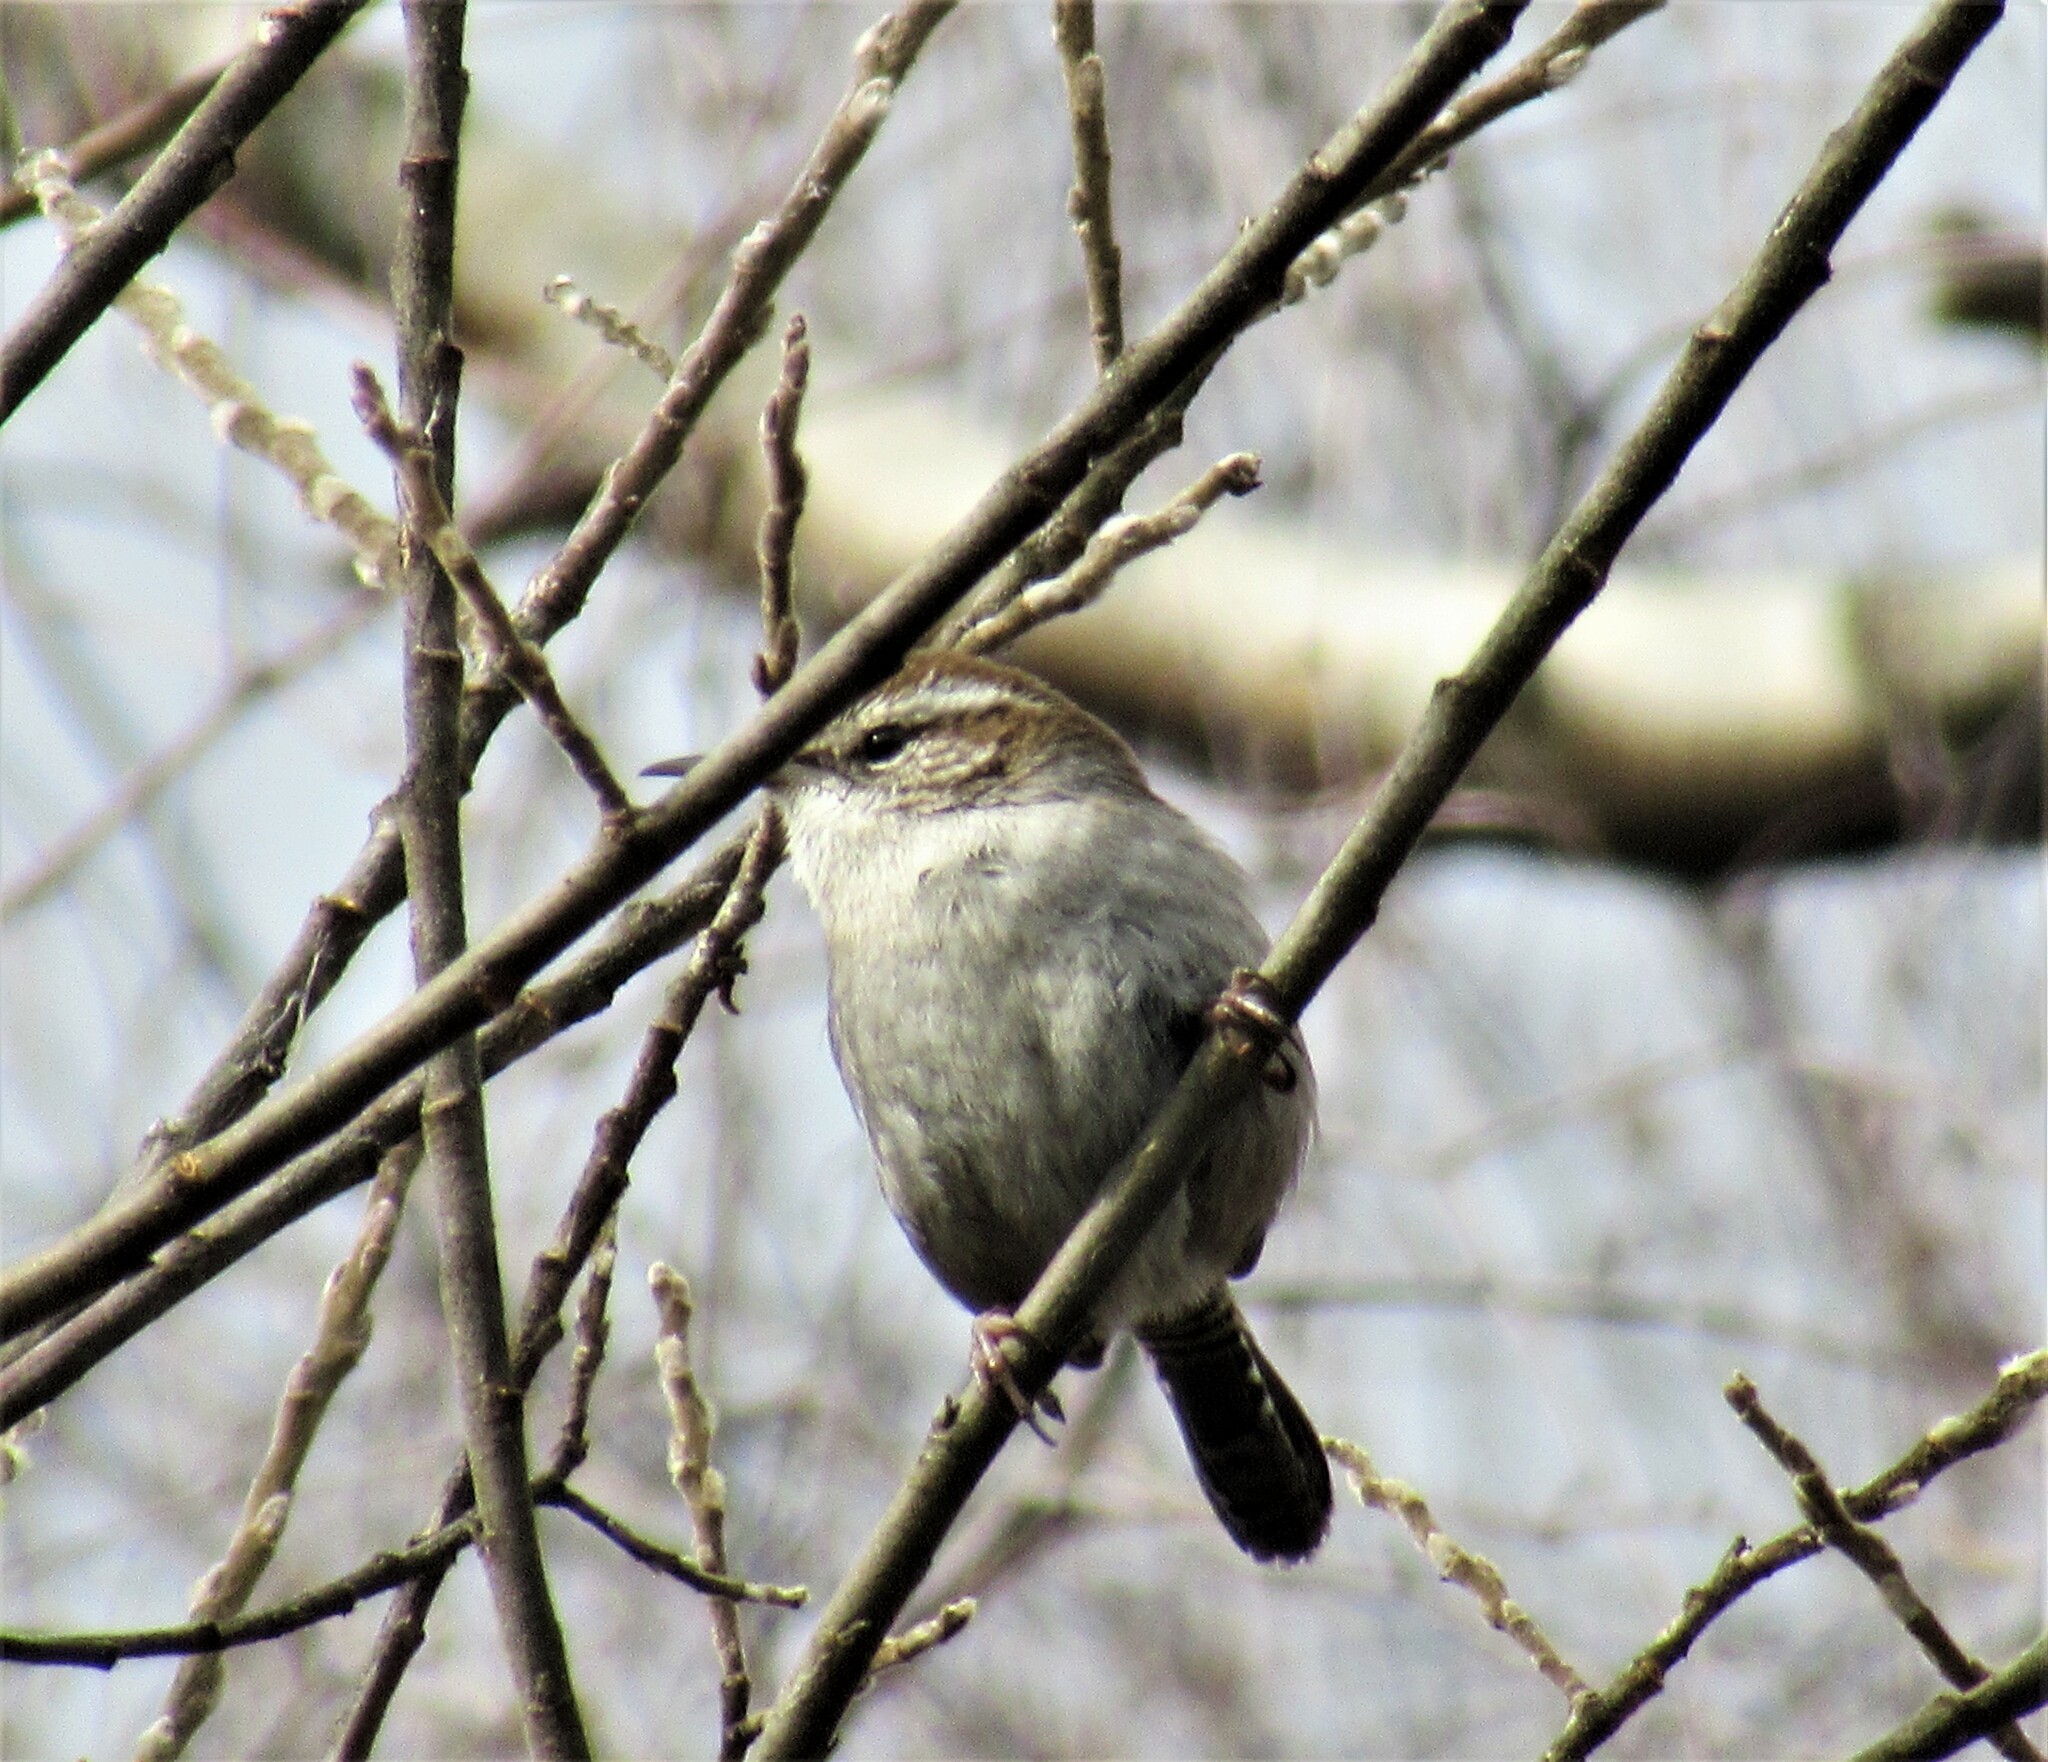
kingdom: Animalia
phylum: Chordata
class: Aves
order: Passeriformes
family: Troglodytidae
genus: Thryomanes
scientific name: Thryomanes bewickii
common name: Bewick's wren
